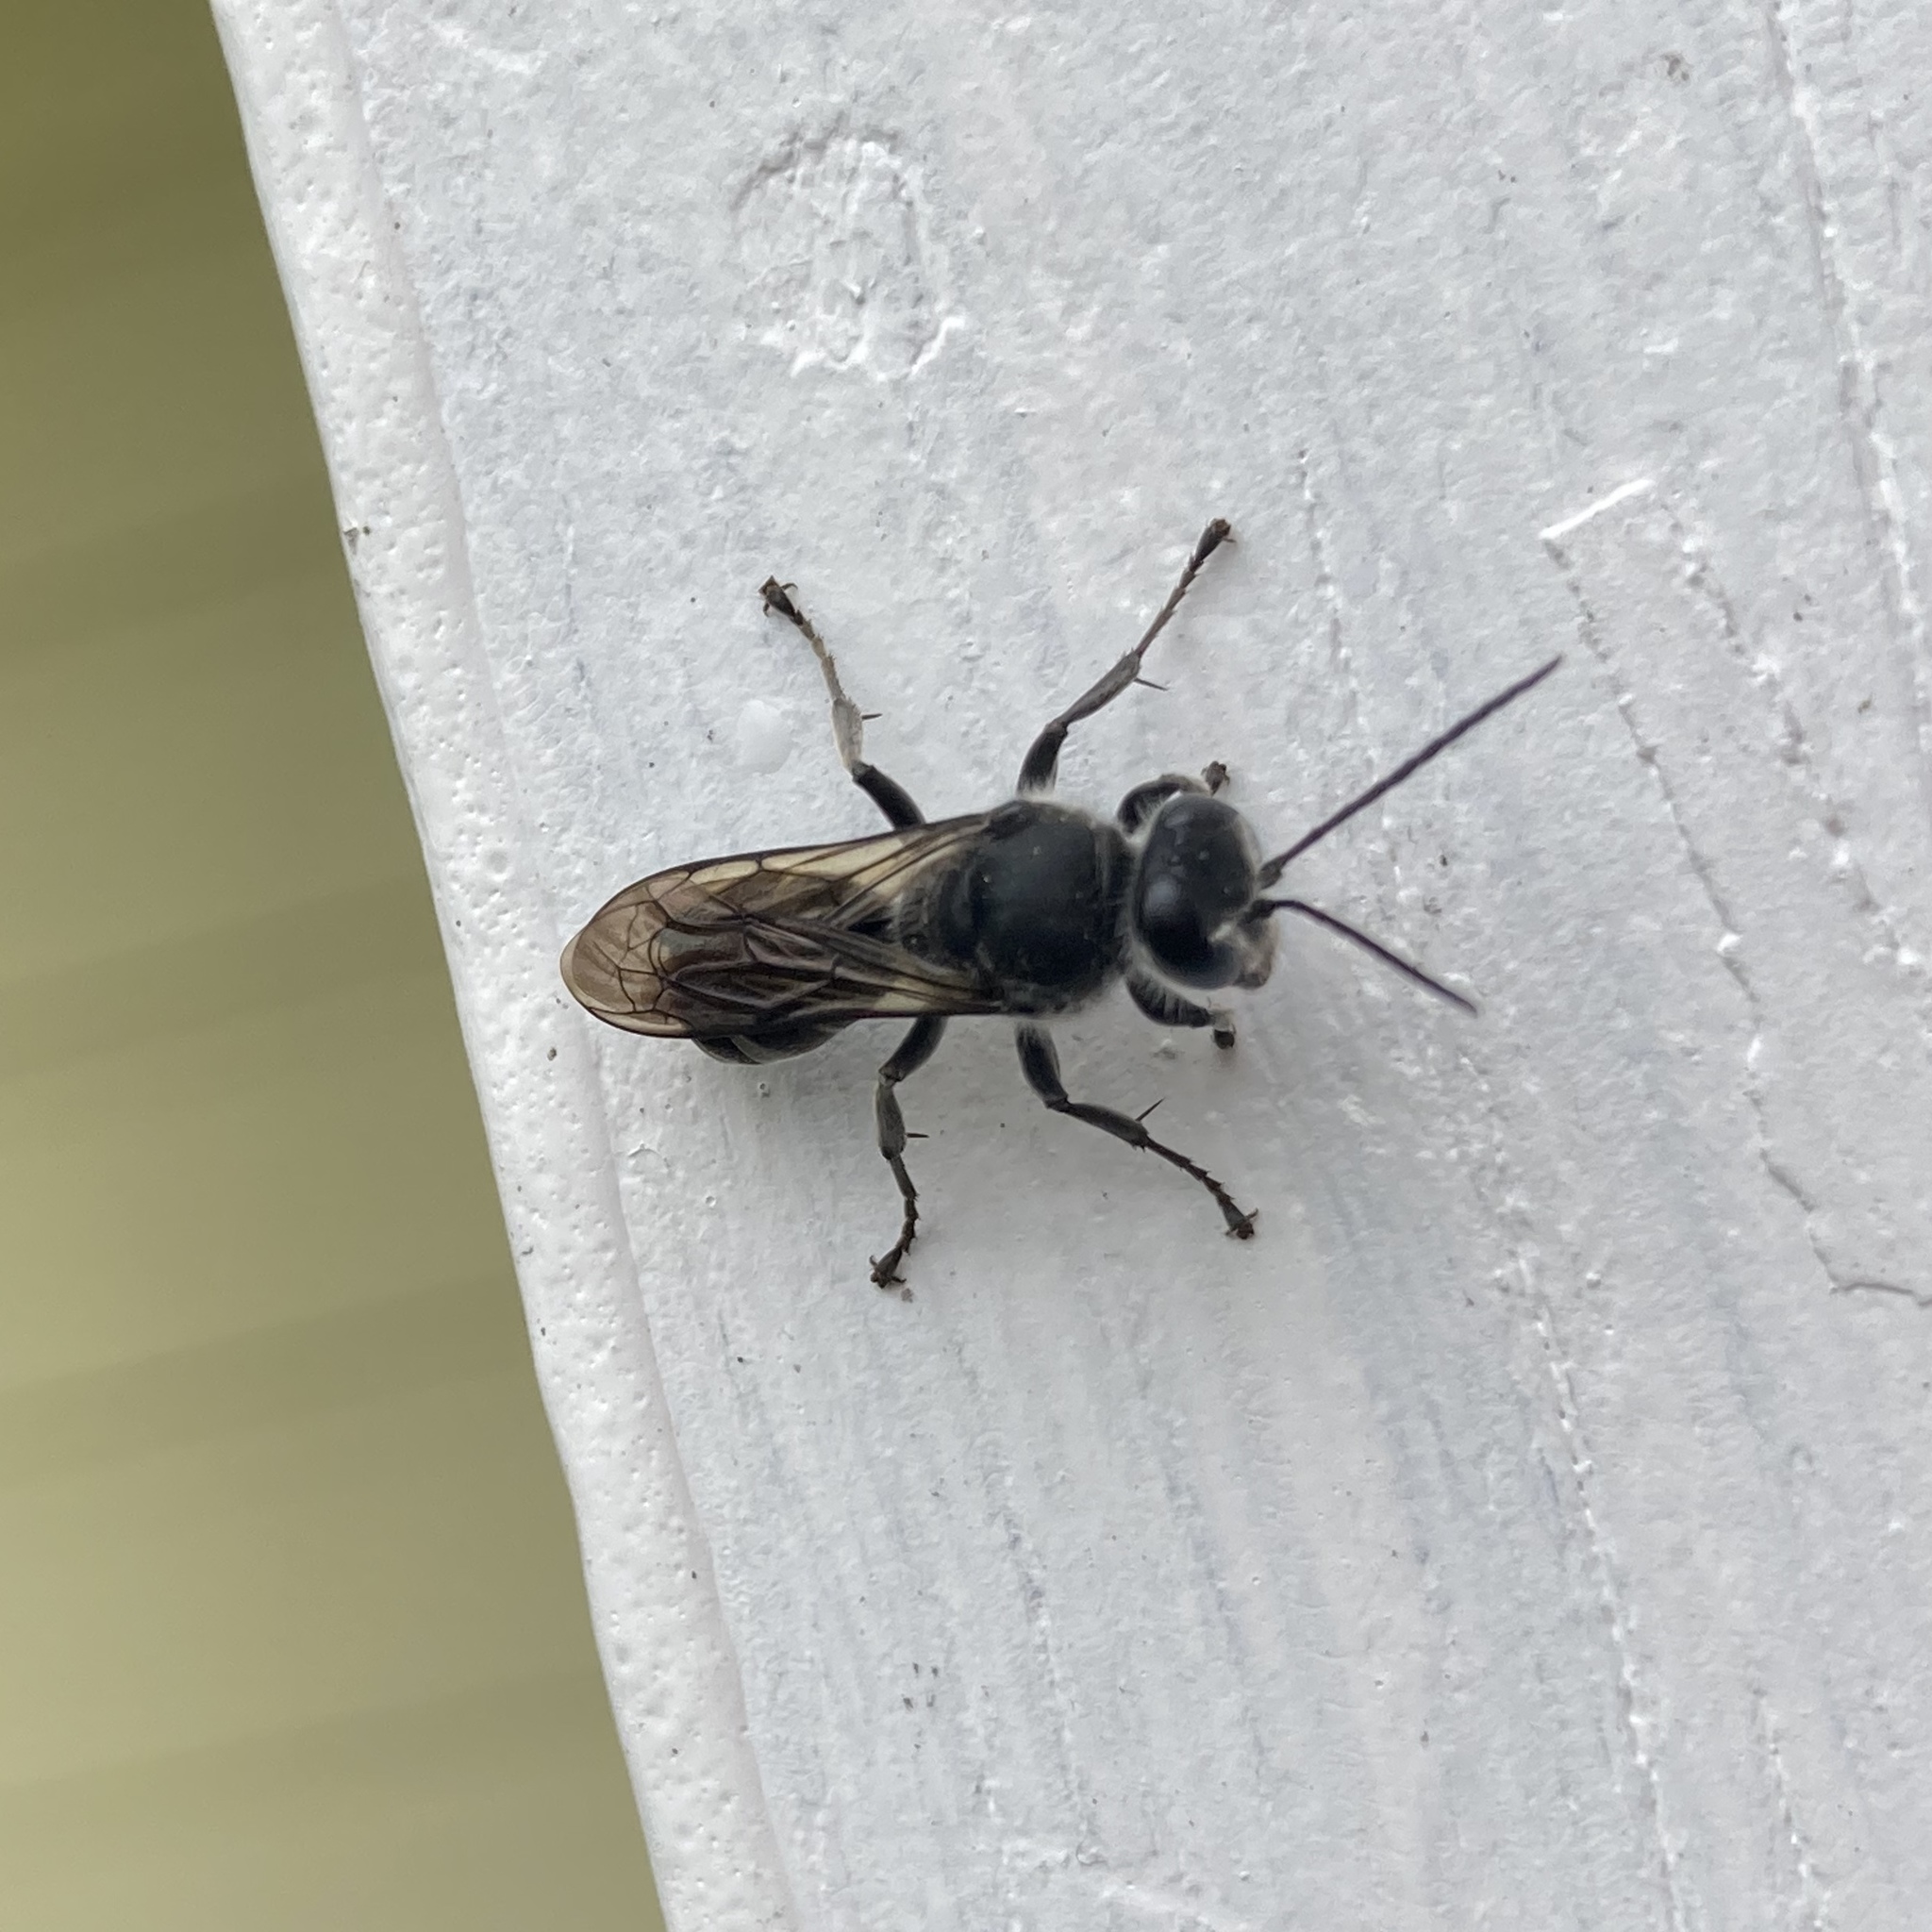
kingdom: Animalia
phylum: Arthropoda
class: Insecta
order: Hymenoptera
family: Crabronidae
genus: Pison
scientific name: Pison spinolae
